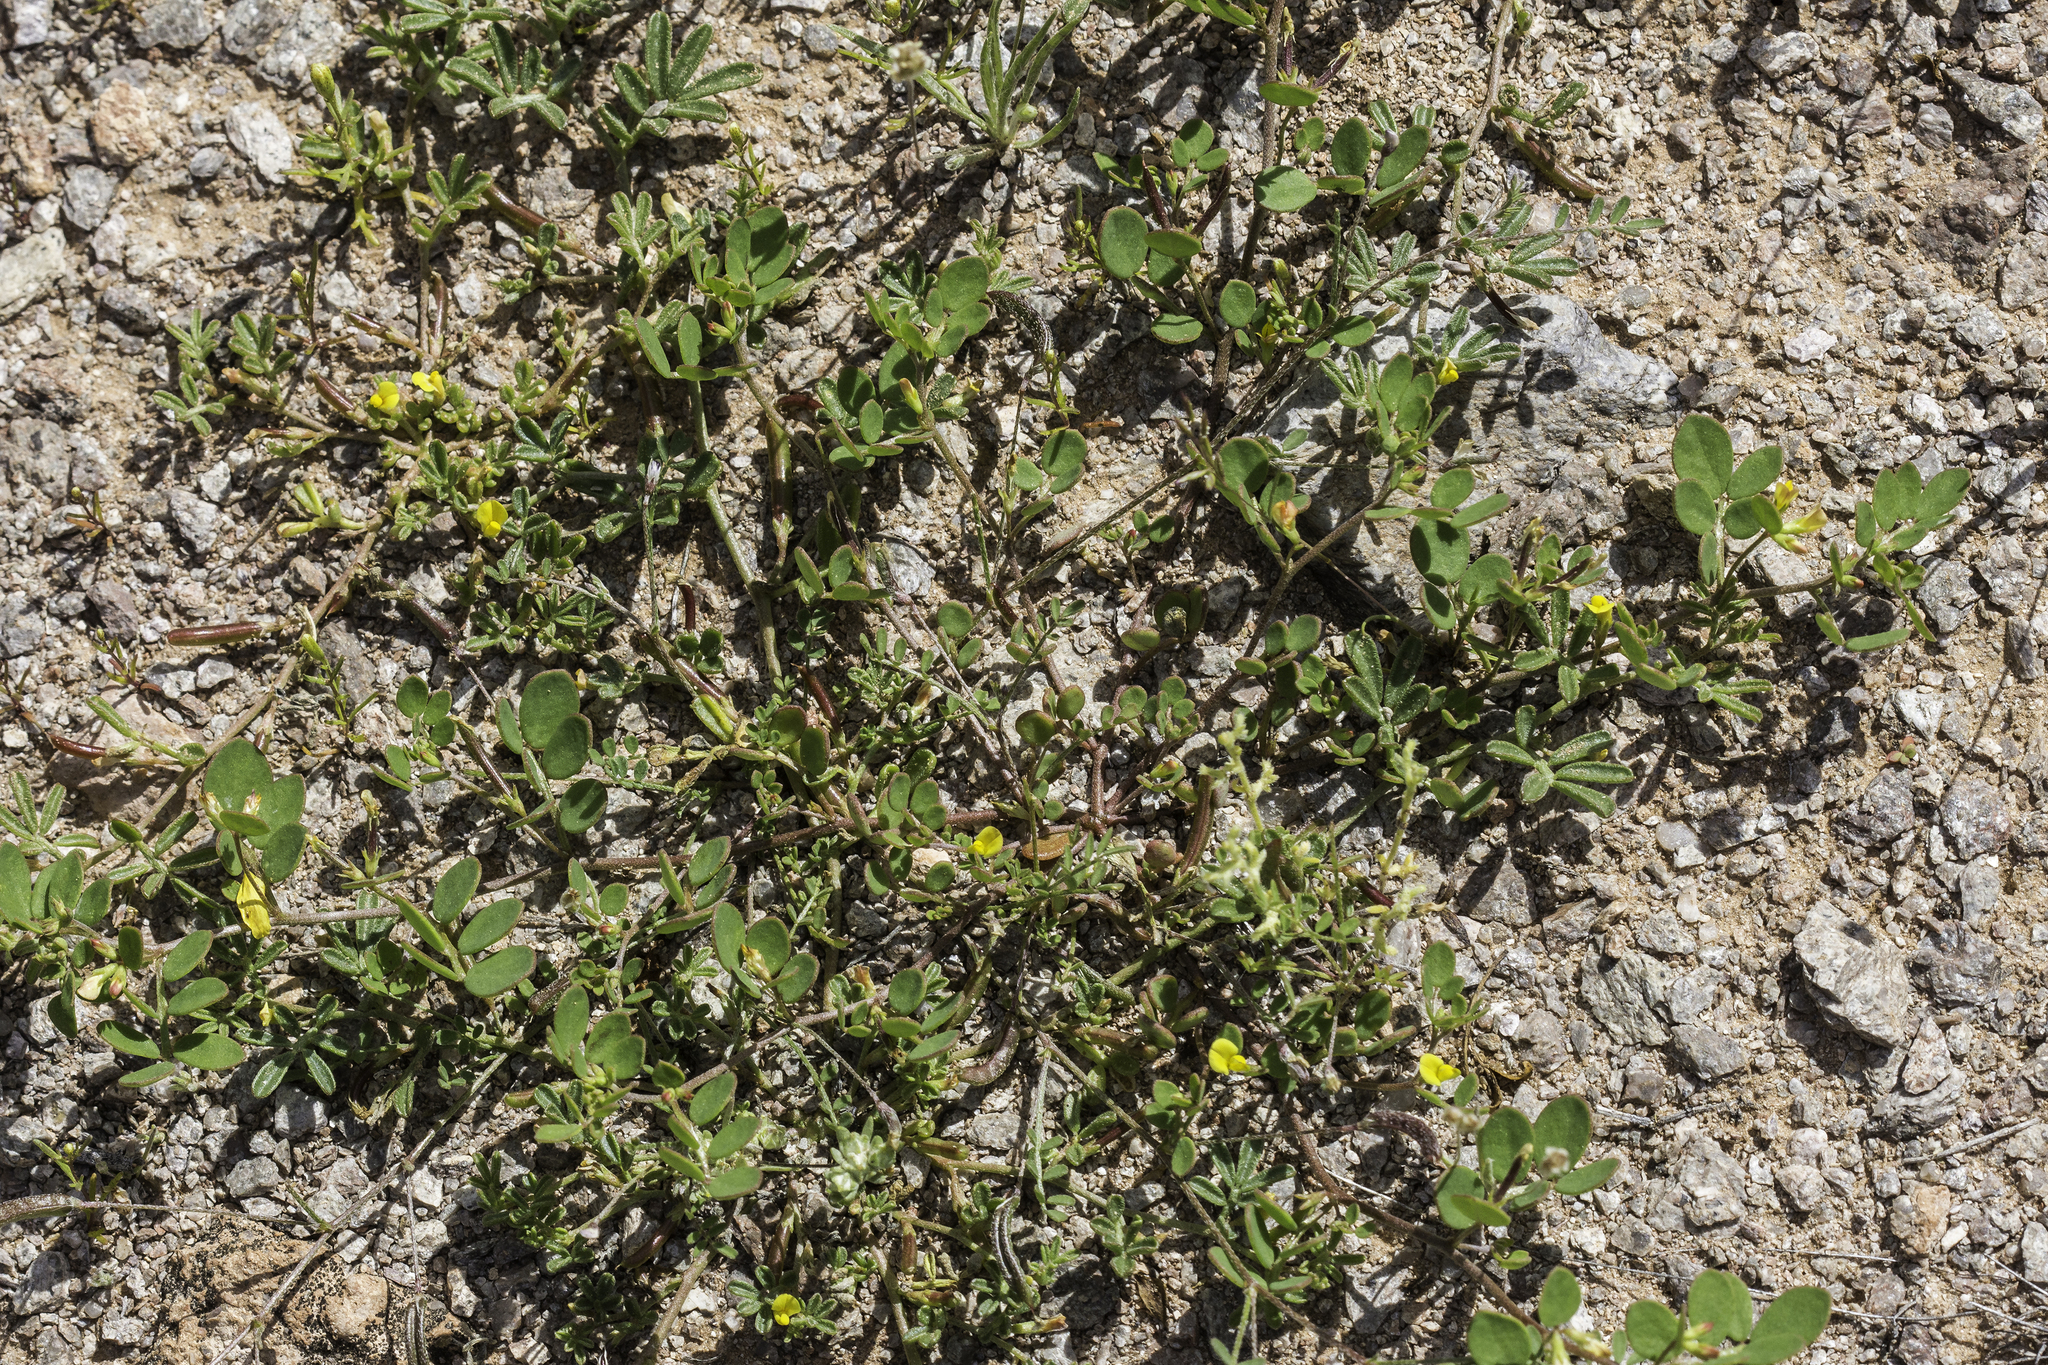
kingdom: Plantae
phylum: Tracheophyta
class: Magnoliopsida
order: Fabales
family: Fabaceae
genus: Acmispon
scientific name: Acmispon maritimus
